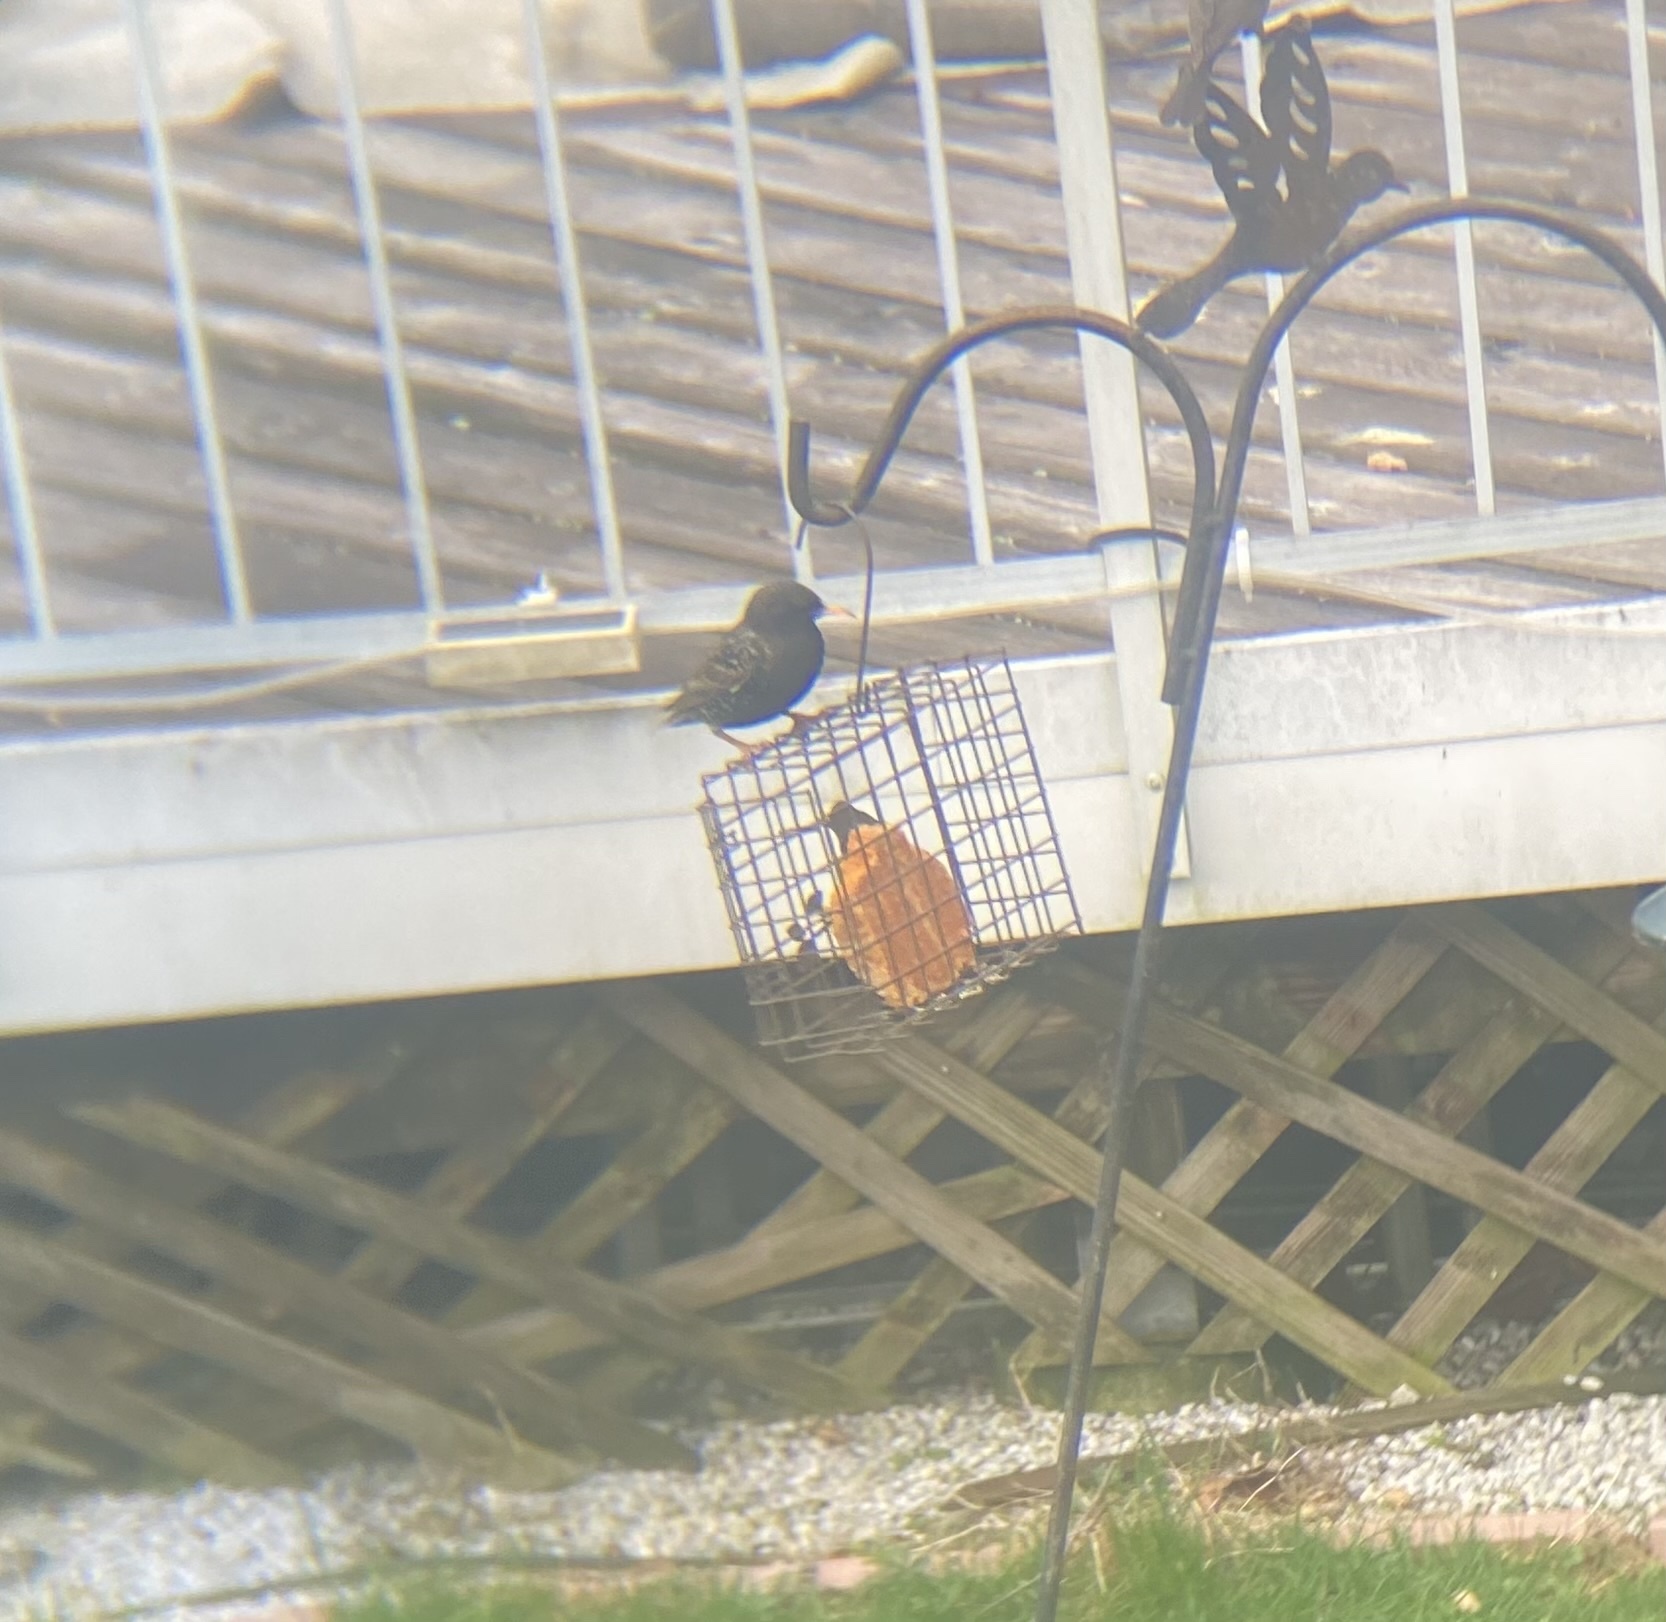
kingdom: Animalia
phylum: Chordata
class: Aves
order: Passeriformes
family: Sturnidae
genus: Sturnus
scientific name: Sturnus vulgaris
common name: Common starling
